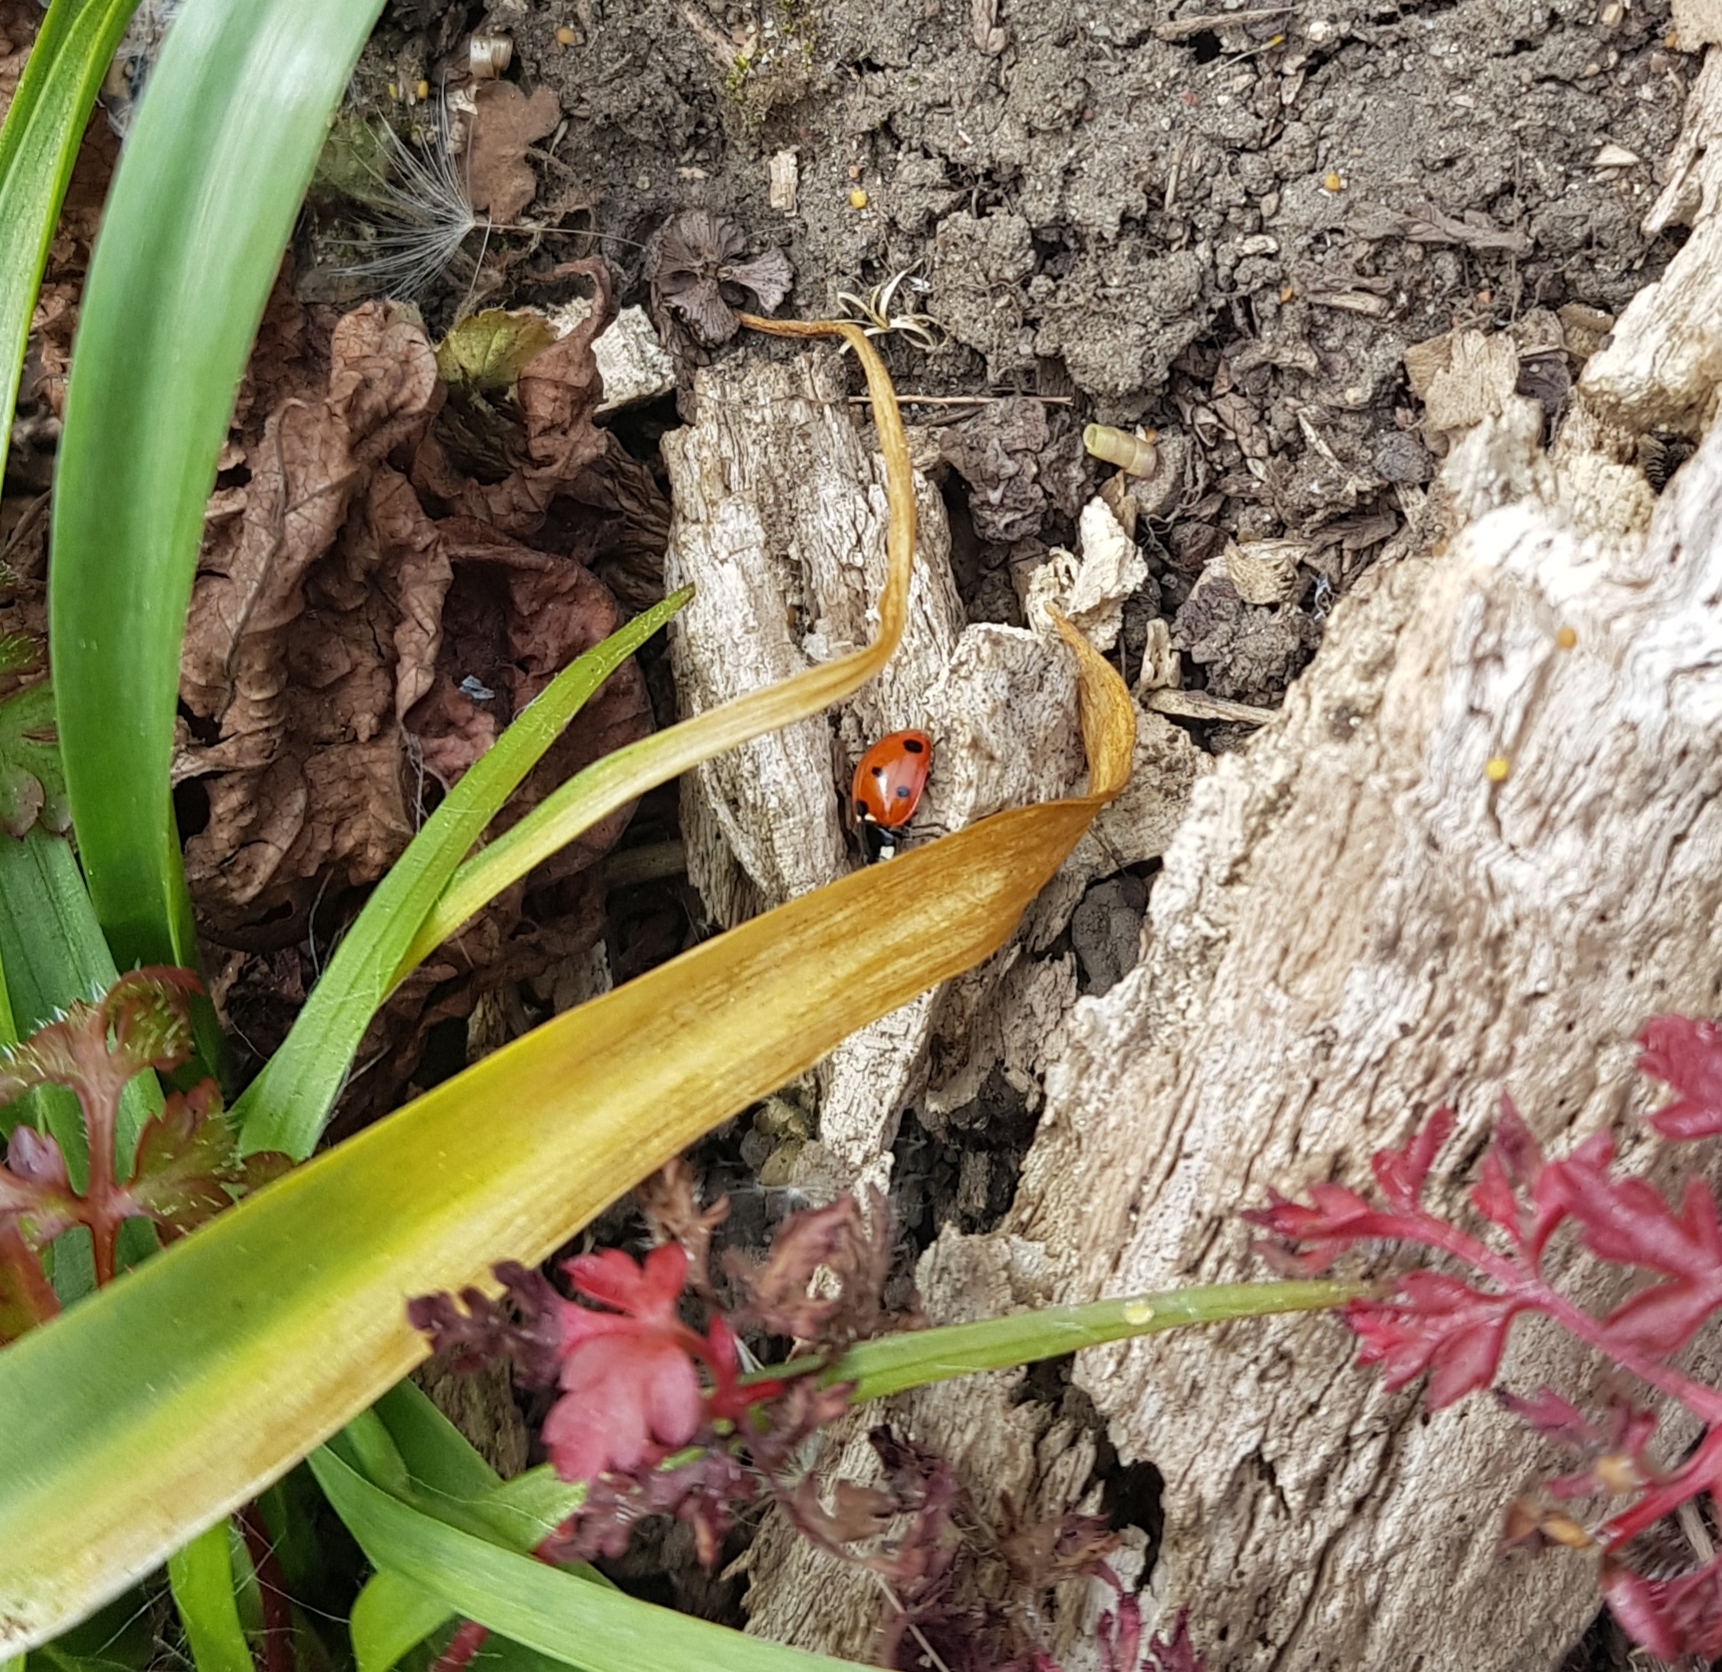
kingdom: Animalia
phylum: Arthropoda
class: Insecta
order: Coleoptera
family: Coccinellidae
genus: Coccinella
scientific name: Coccinella septempunctata
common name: Sevenspotted lady beetle
